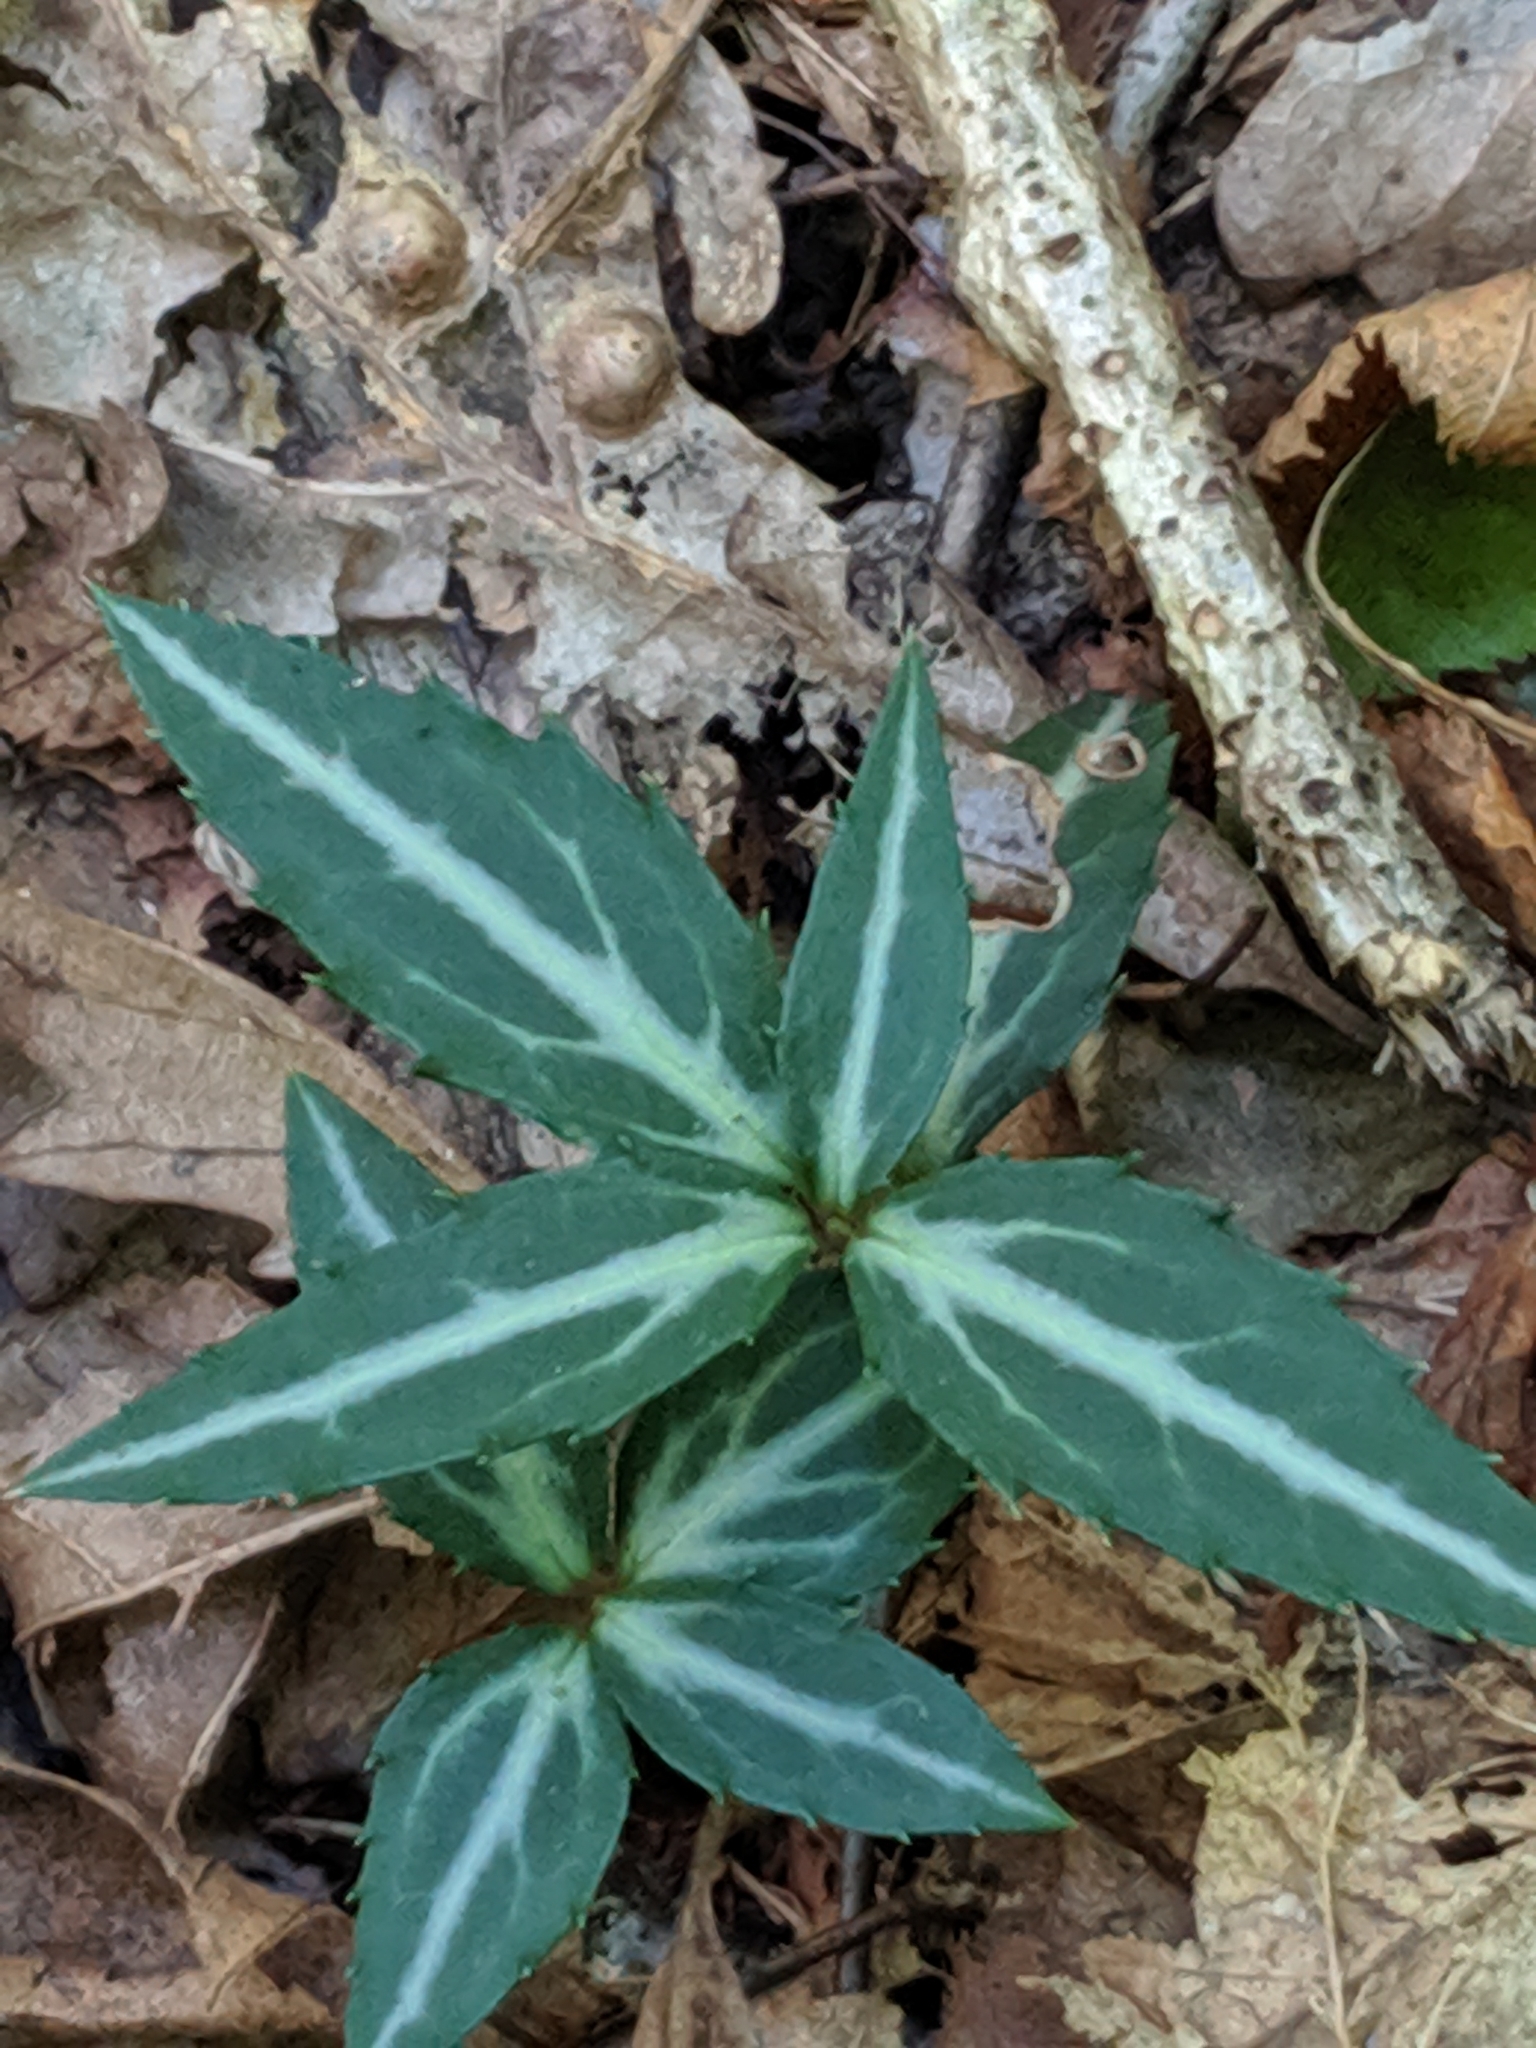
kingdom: Plantae
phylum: Tracheophyta
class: Magnoliopsida
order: Ericales
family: Ericaceae
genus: Chimaphila
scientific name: Chimaphila maculata
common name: Spotted pipsissewa
